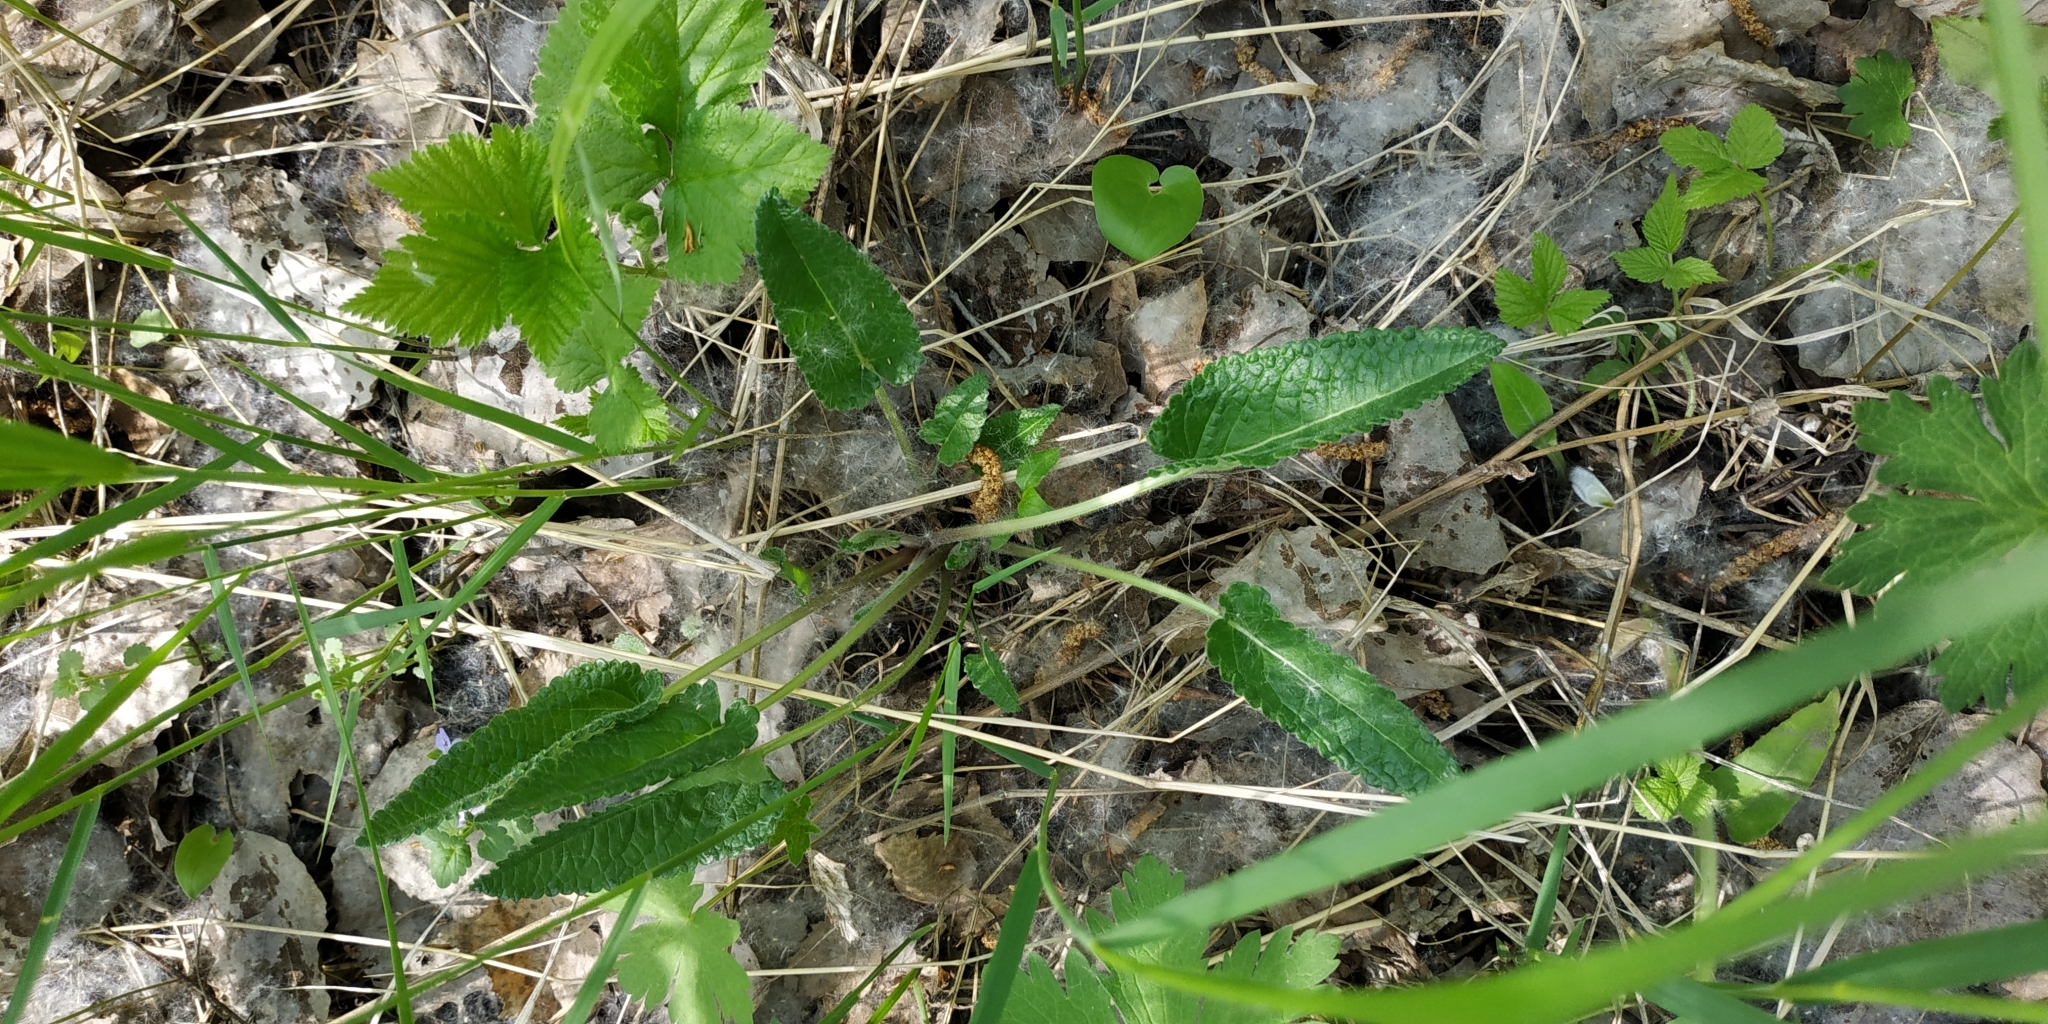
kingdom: Plantae
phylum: Tracheophyta
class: Magnoliopsida
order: Lamiales
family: Lamiaceae
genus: Betonica
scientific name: Betonica officinalis
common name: Bishop's-wort
